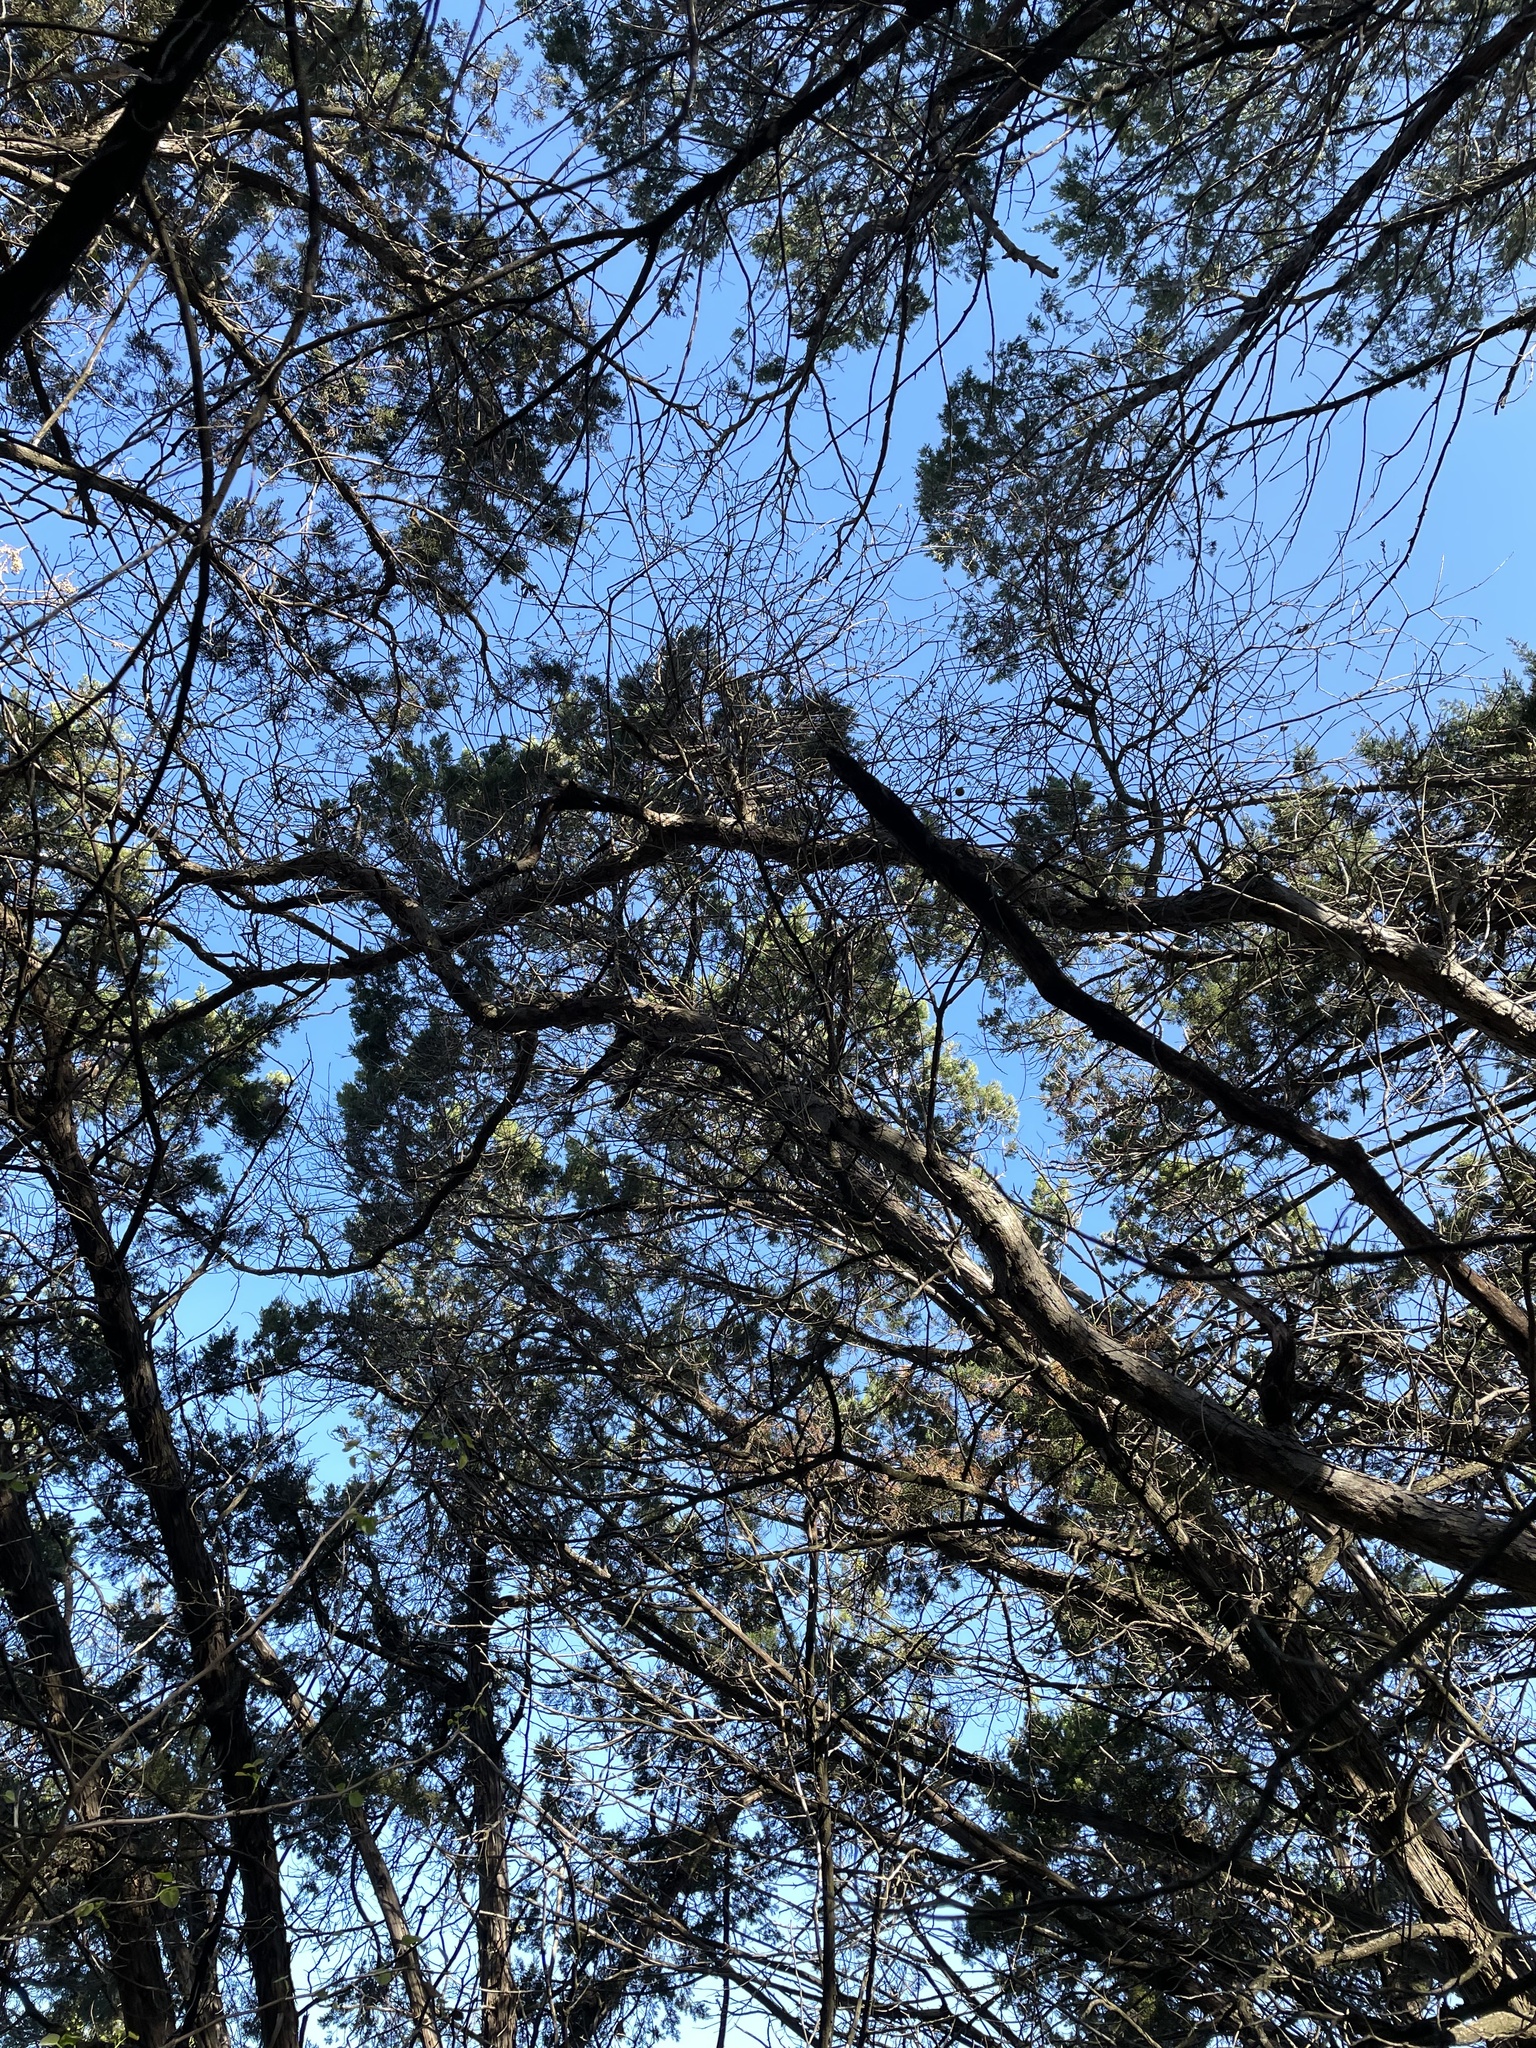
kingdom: Plantae
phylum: Tracheophyta
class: Magnoliopsida
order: Fagales
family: Fagaceae
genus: Quercus
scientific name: Quercus sinuata
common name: Durand oak
